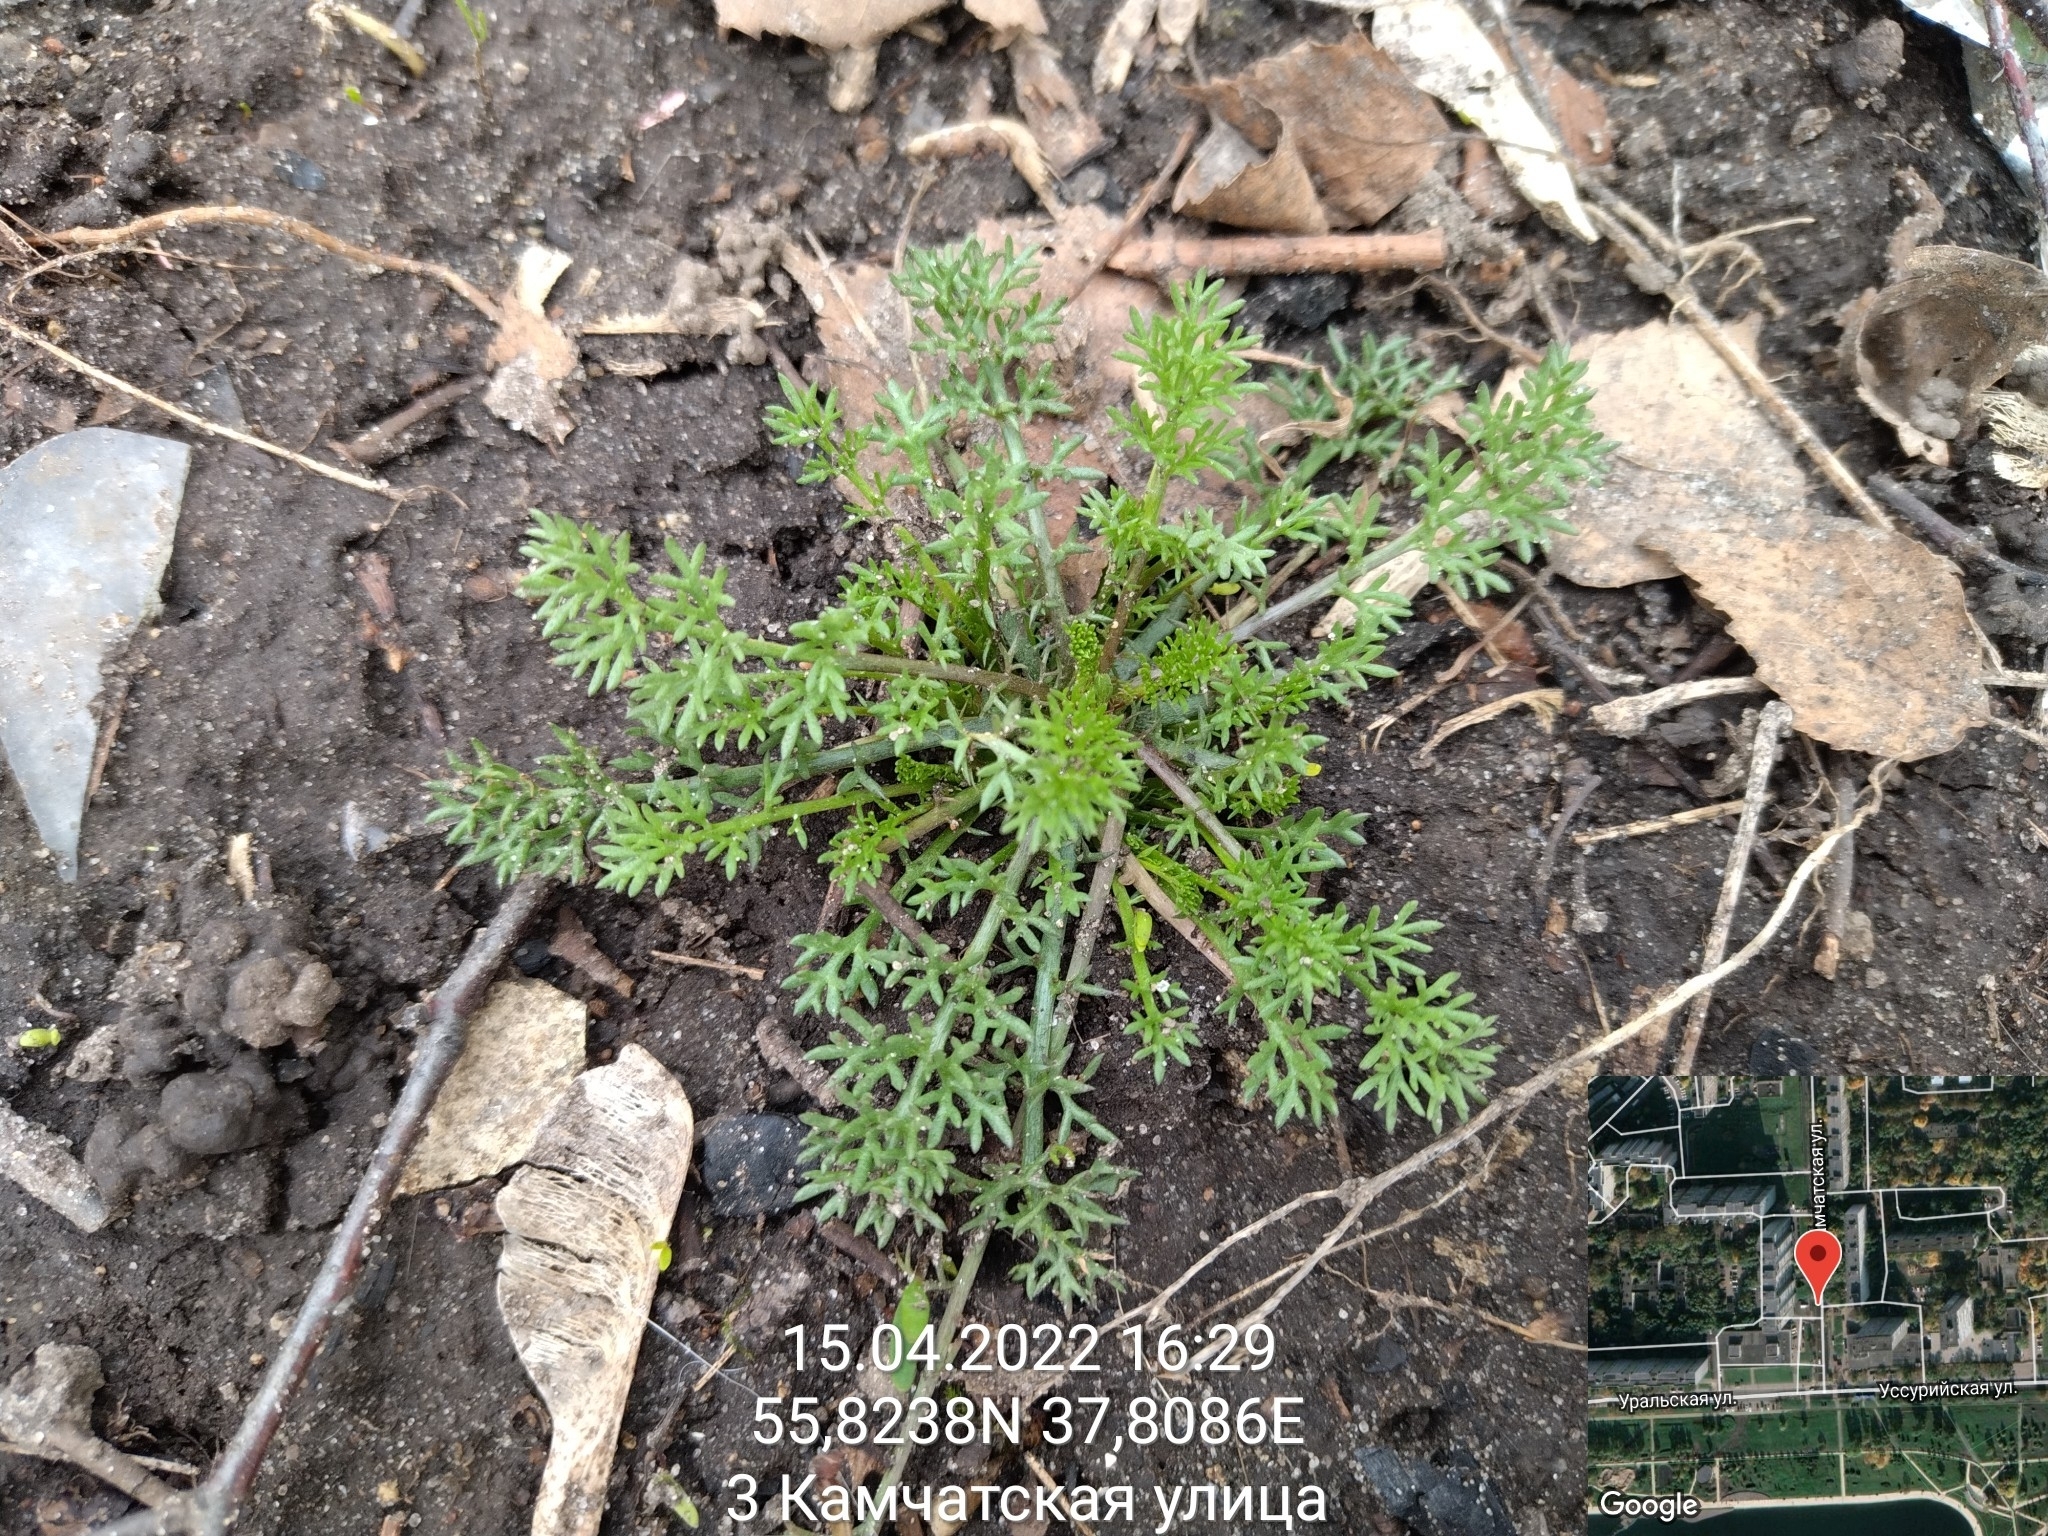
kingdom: Plantae
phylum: Tracheophyta
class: Magnoliopsida
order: Asterales
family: Asteraceae
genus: Tripleurospermum
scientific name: Tripleurospermum inodorum
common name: Scentless mayweed
